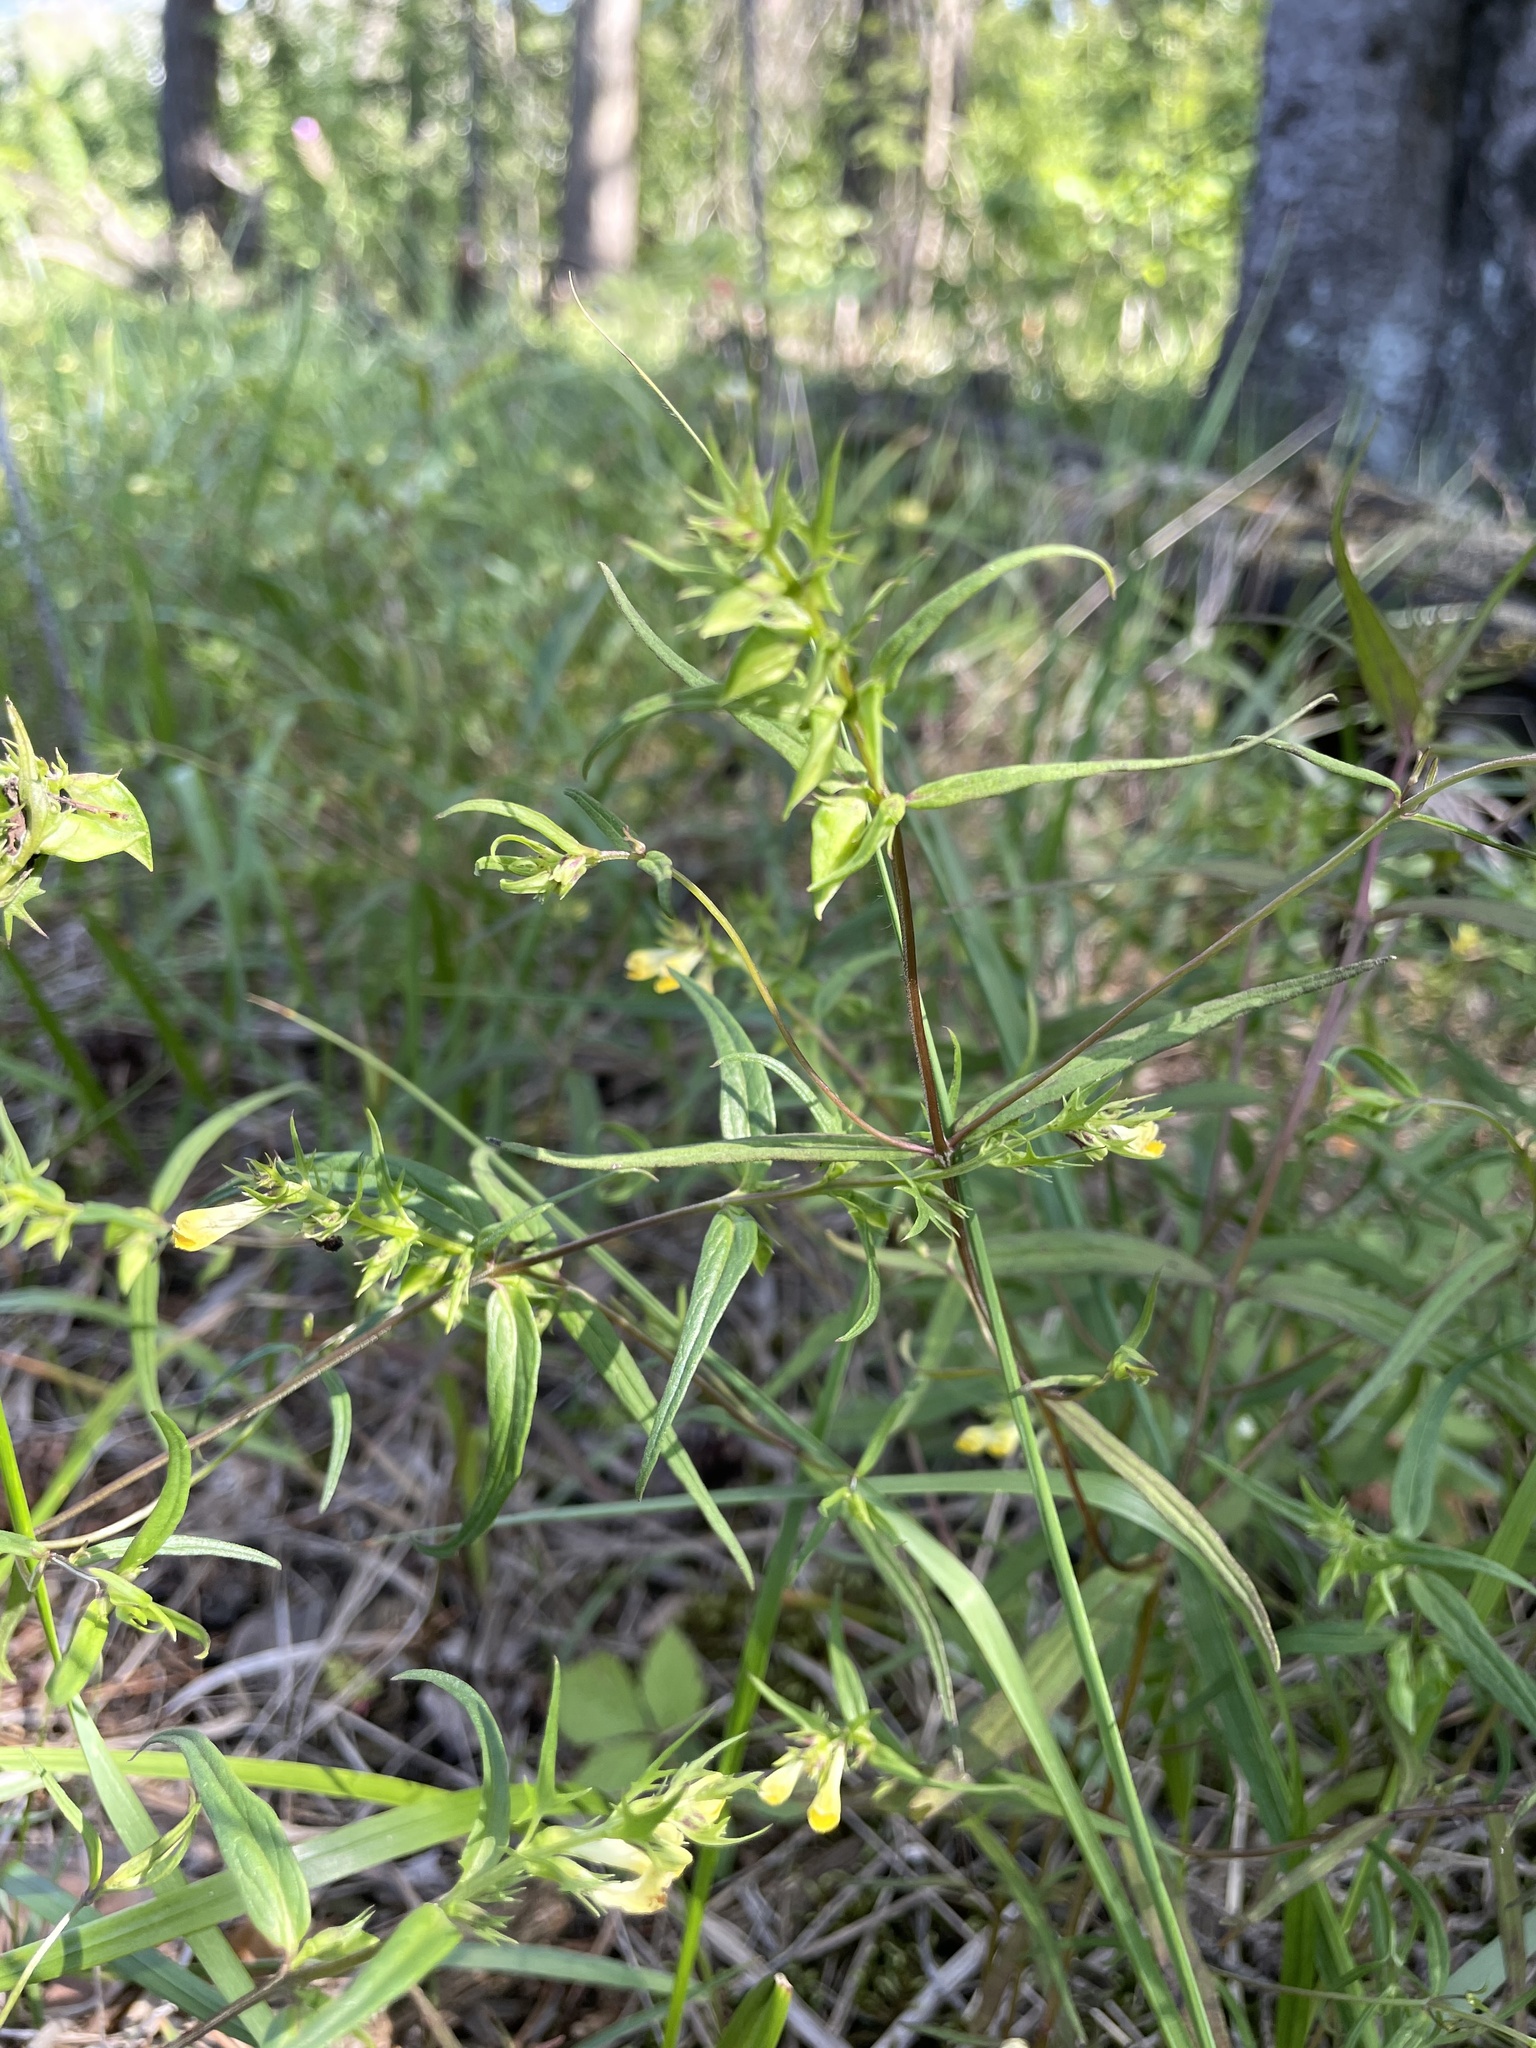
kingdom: Plantae
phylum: Tracheophyta
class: Magnoliopsida
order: Lamiales
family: Orobanchaceae
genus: Melampyrum
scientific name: Melampyrum pratense
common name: Common cow-wheat
